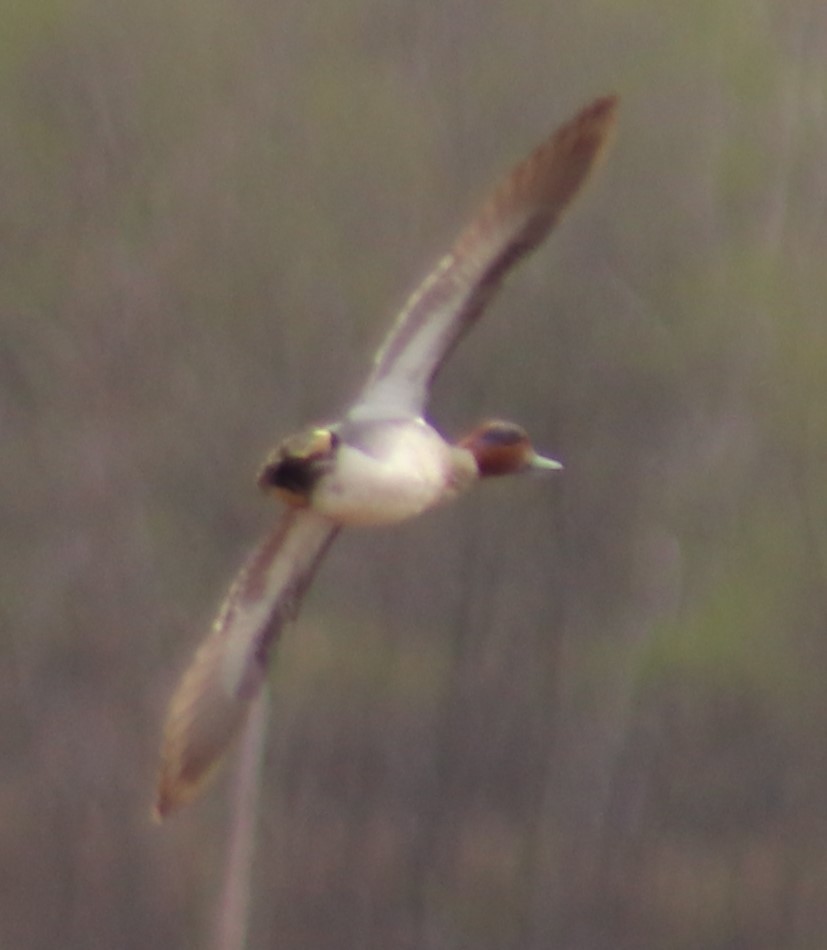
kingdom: Animalia
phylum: Chordata
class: Aves
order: Anseriformes
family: Anatidae
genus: Anas
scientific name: Anas crecca
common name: Eurasian teal
